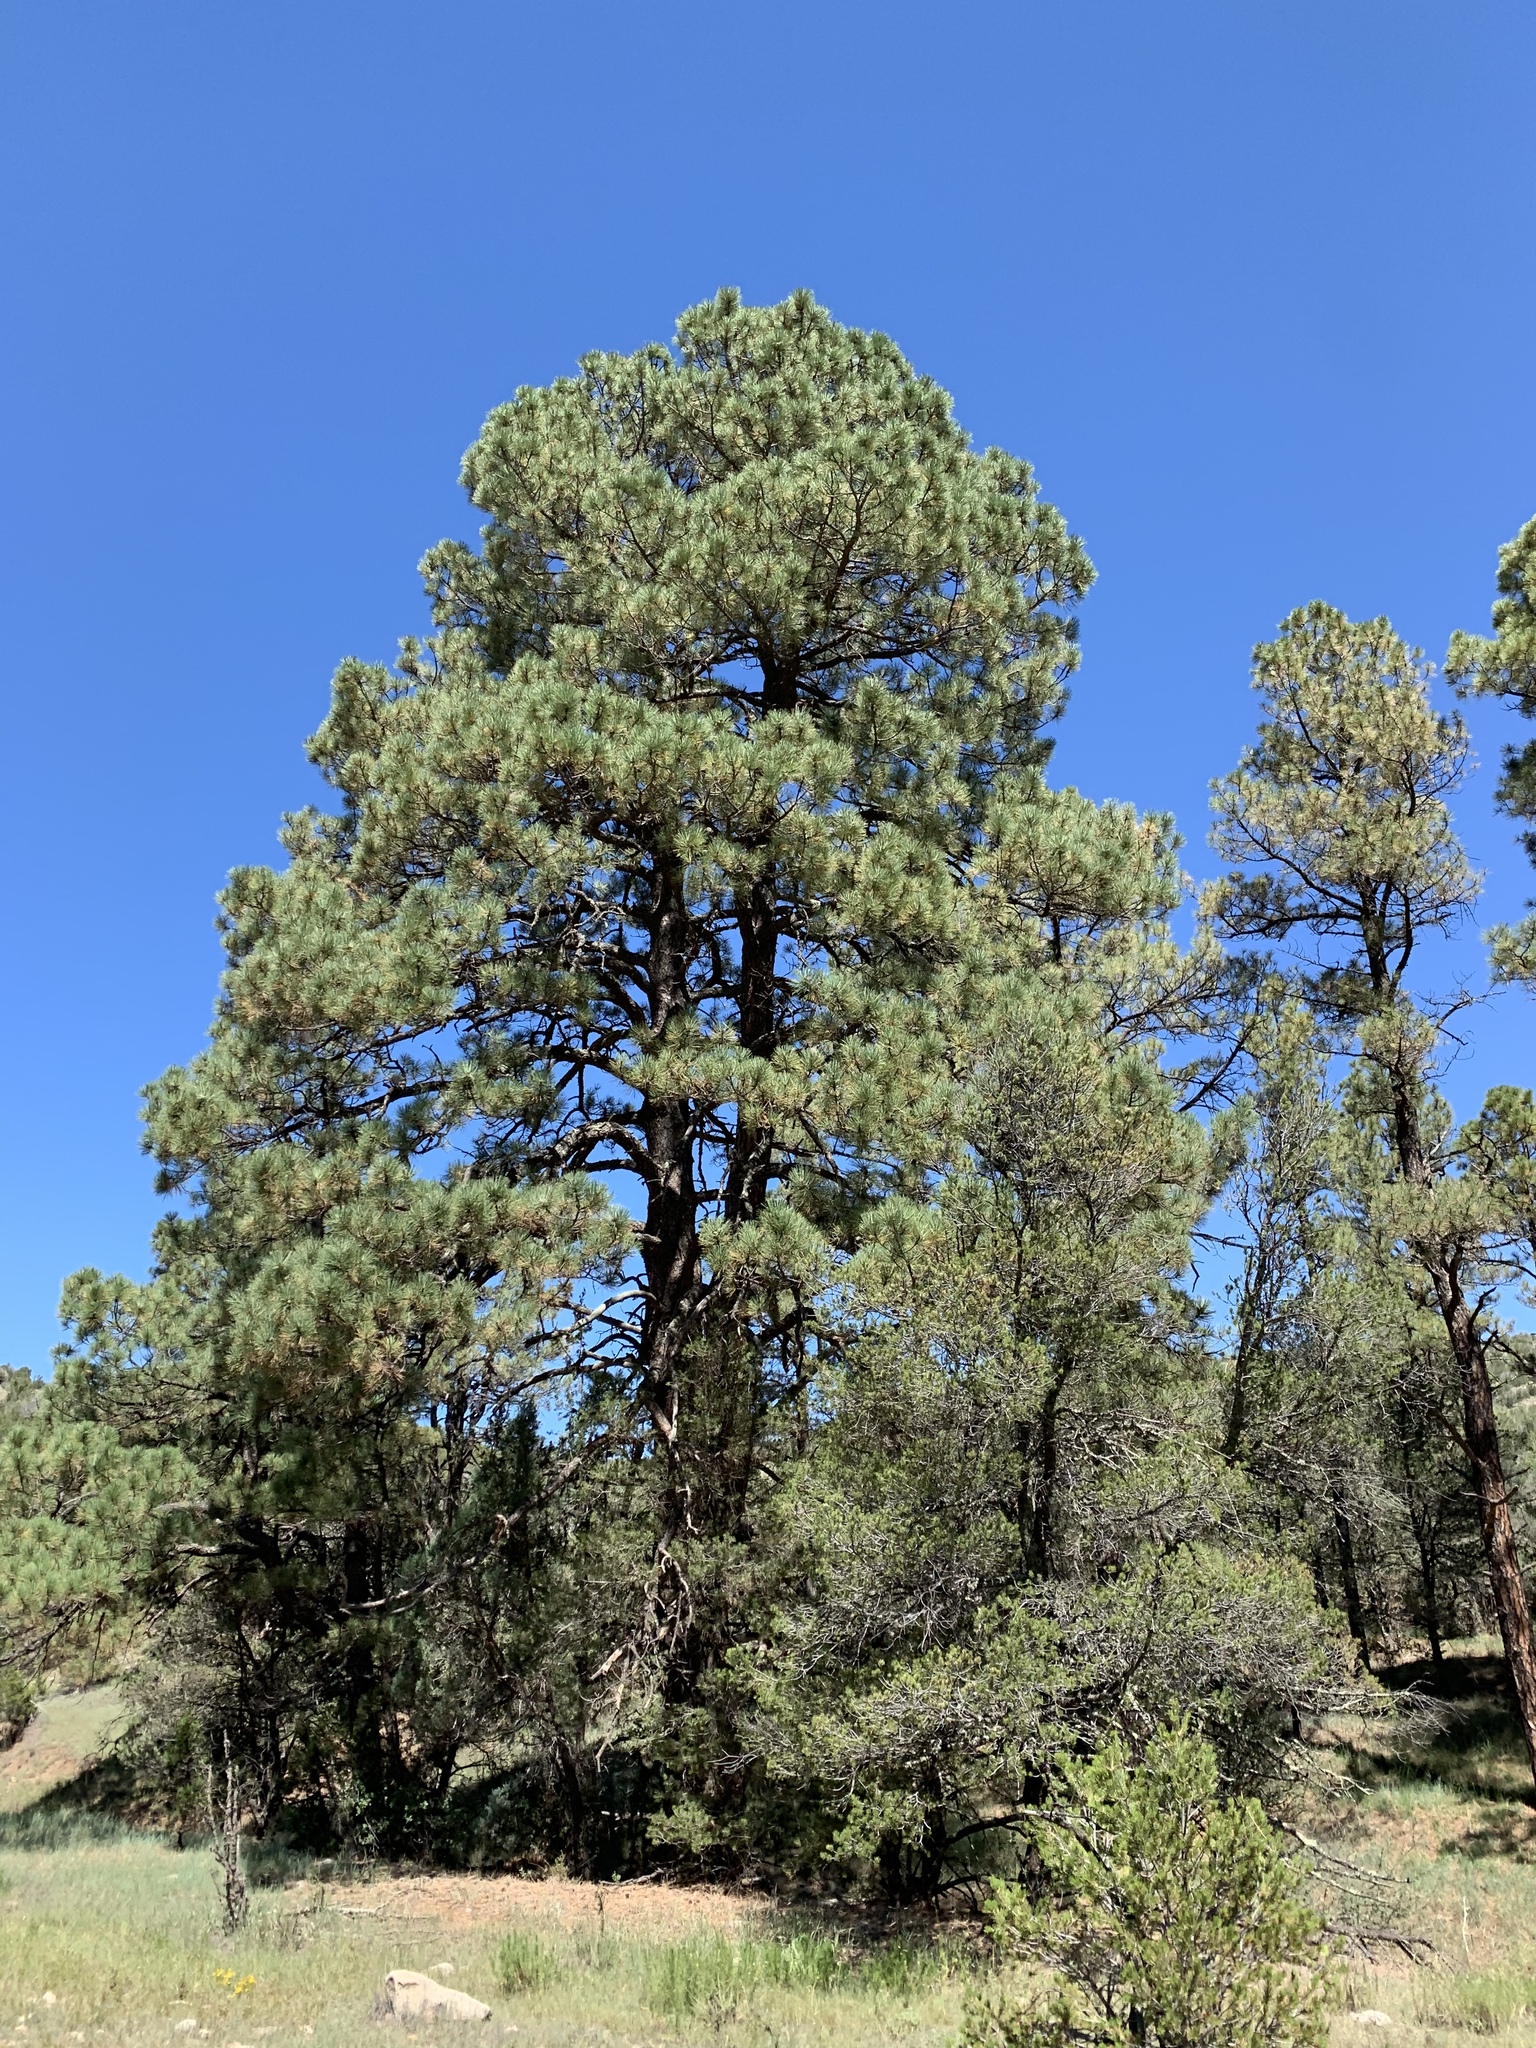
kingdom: Plantae
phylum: Tracheophyta
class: Pinopsida
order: Pinales
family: Pinaceae
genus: Pinus
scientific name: Pinus ponderosa
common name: Western yellow-pine
